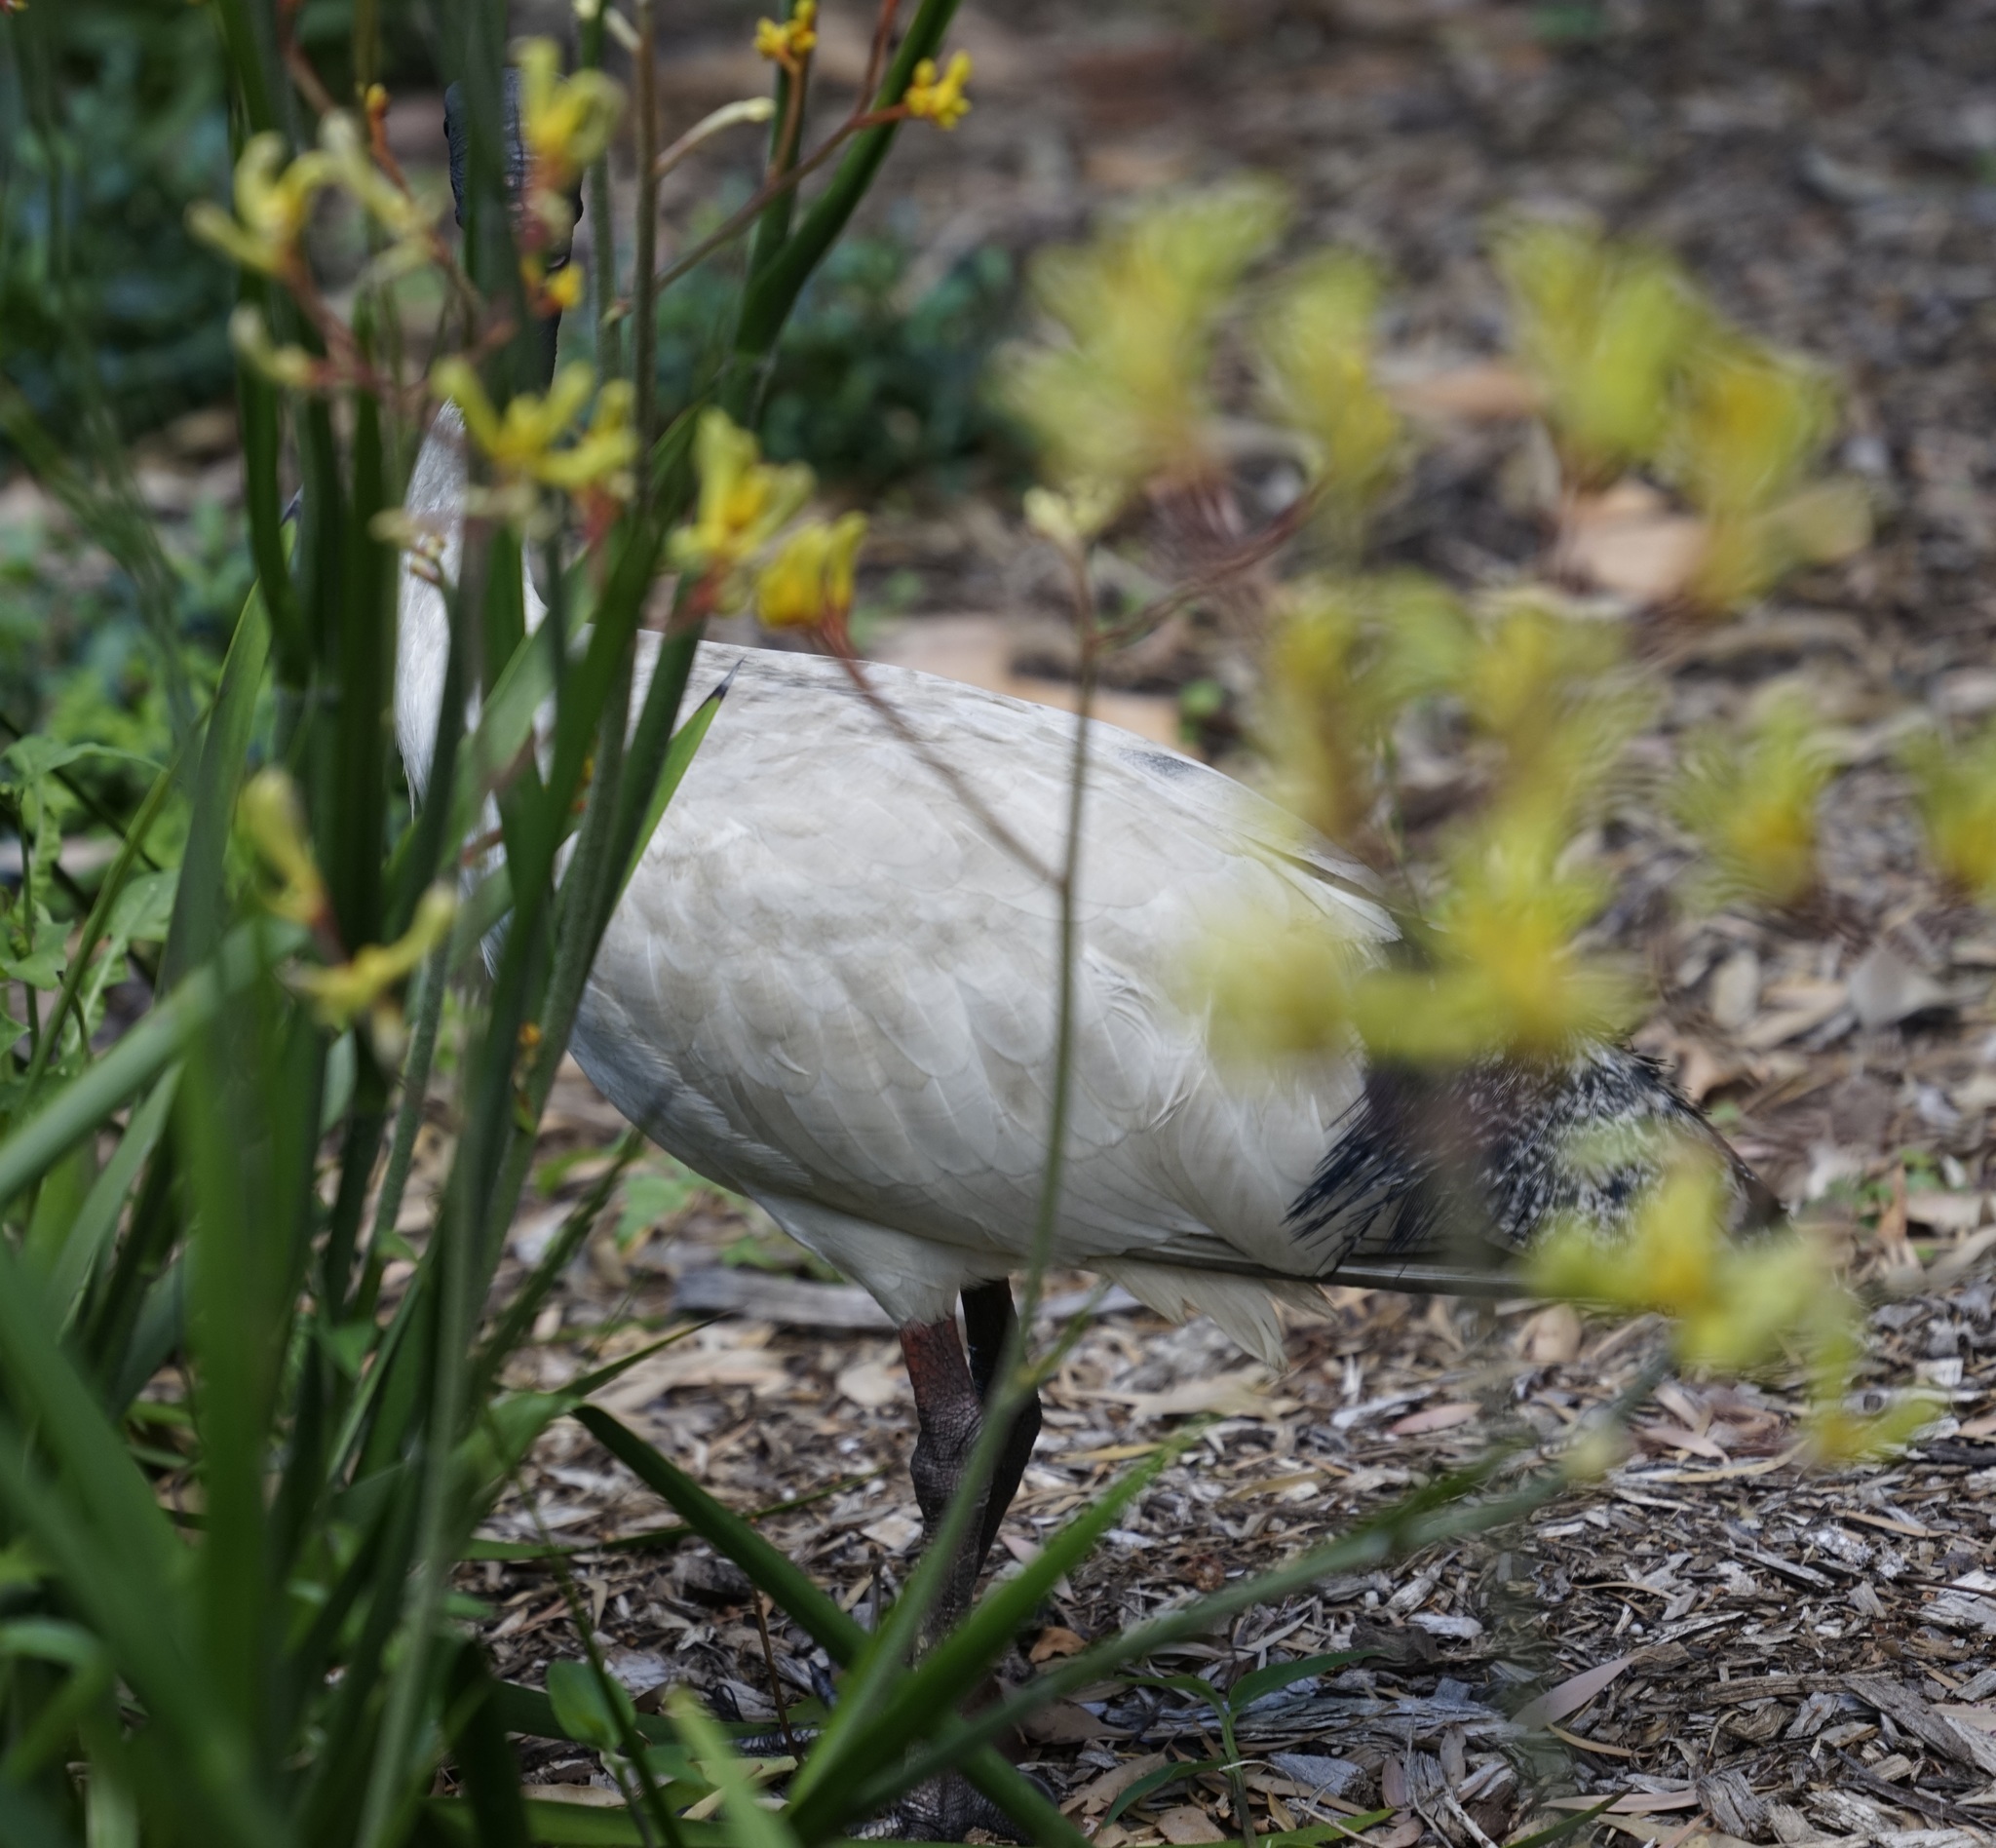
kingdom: Animalia
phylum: Chordata
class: Aves
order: Pelecaniformes
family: Threskiornithidae
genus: Threskiornis
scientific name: Threskiornis molucca
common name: Australian white ibis
